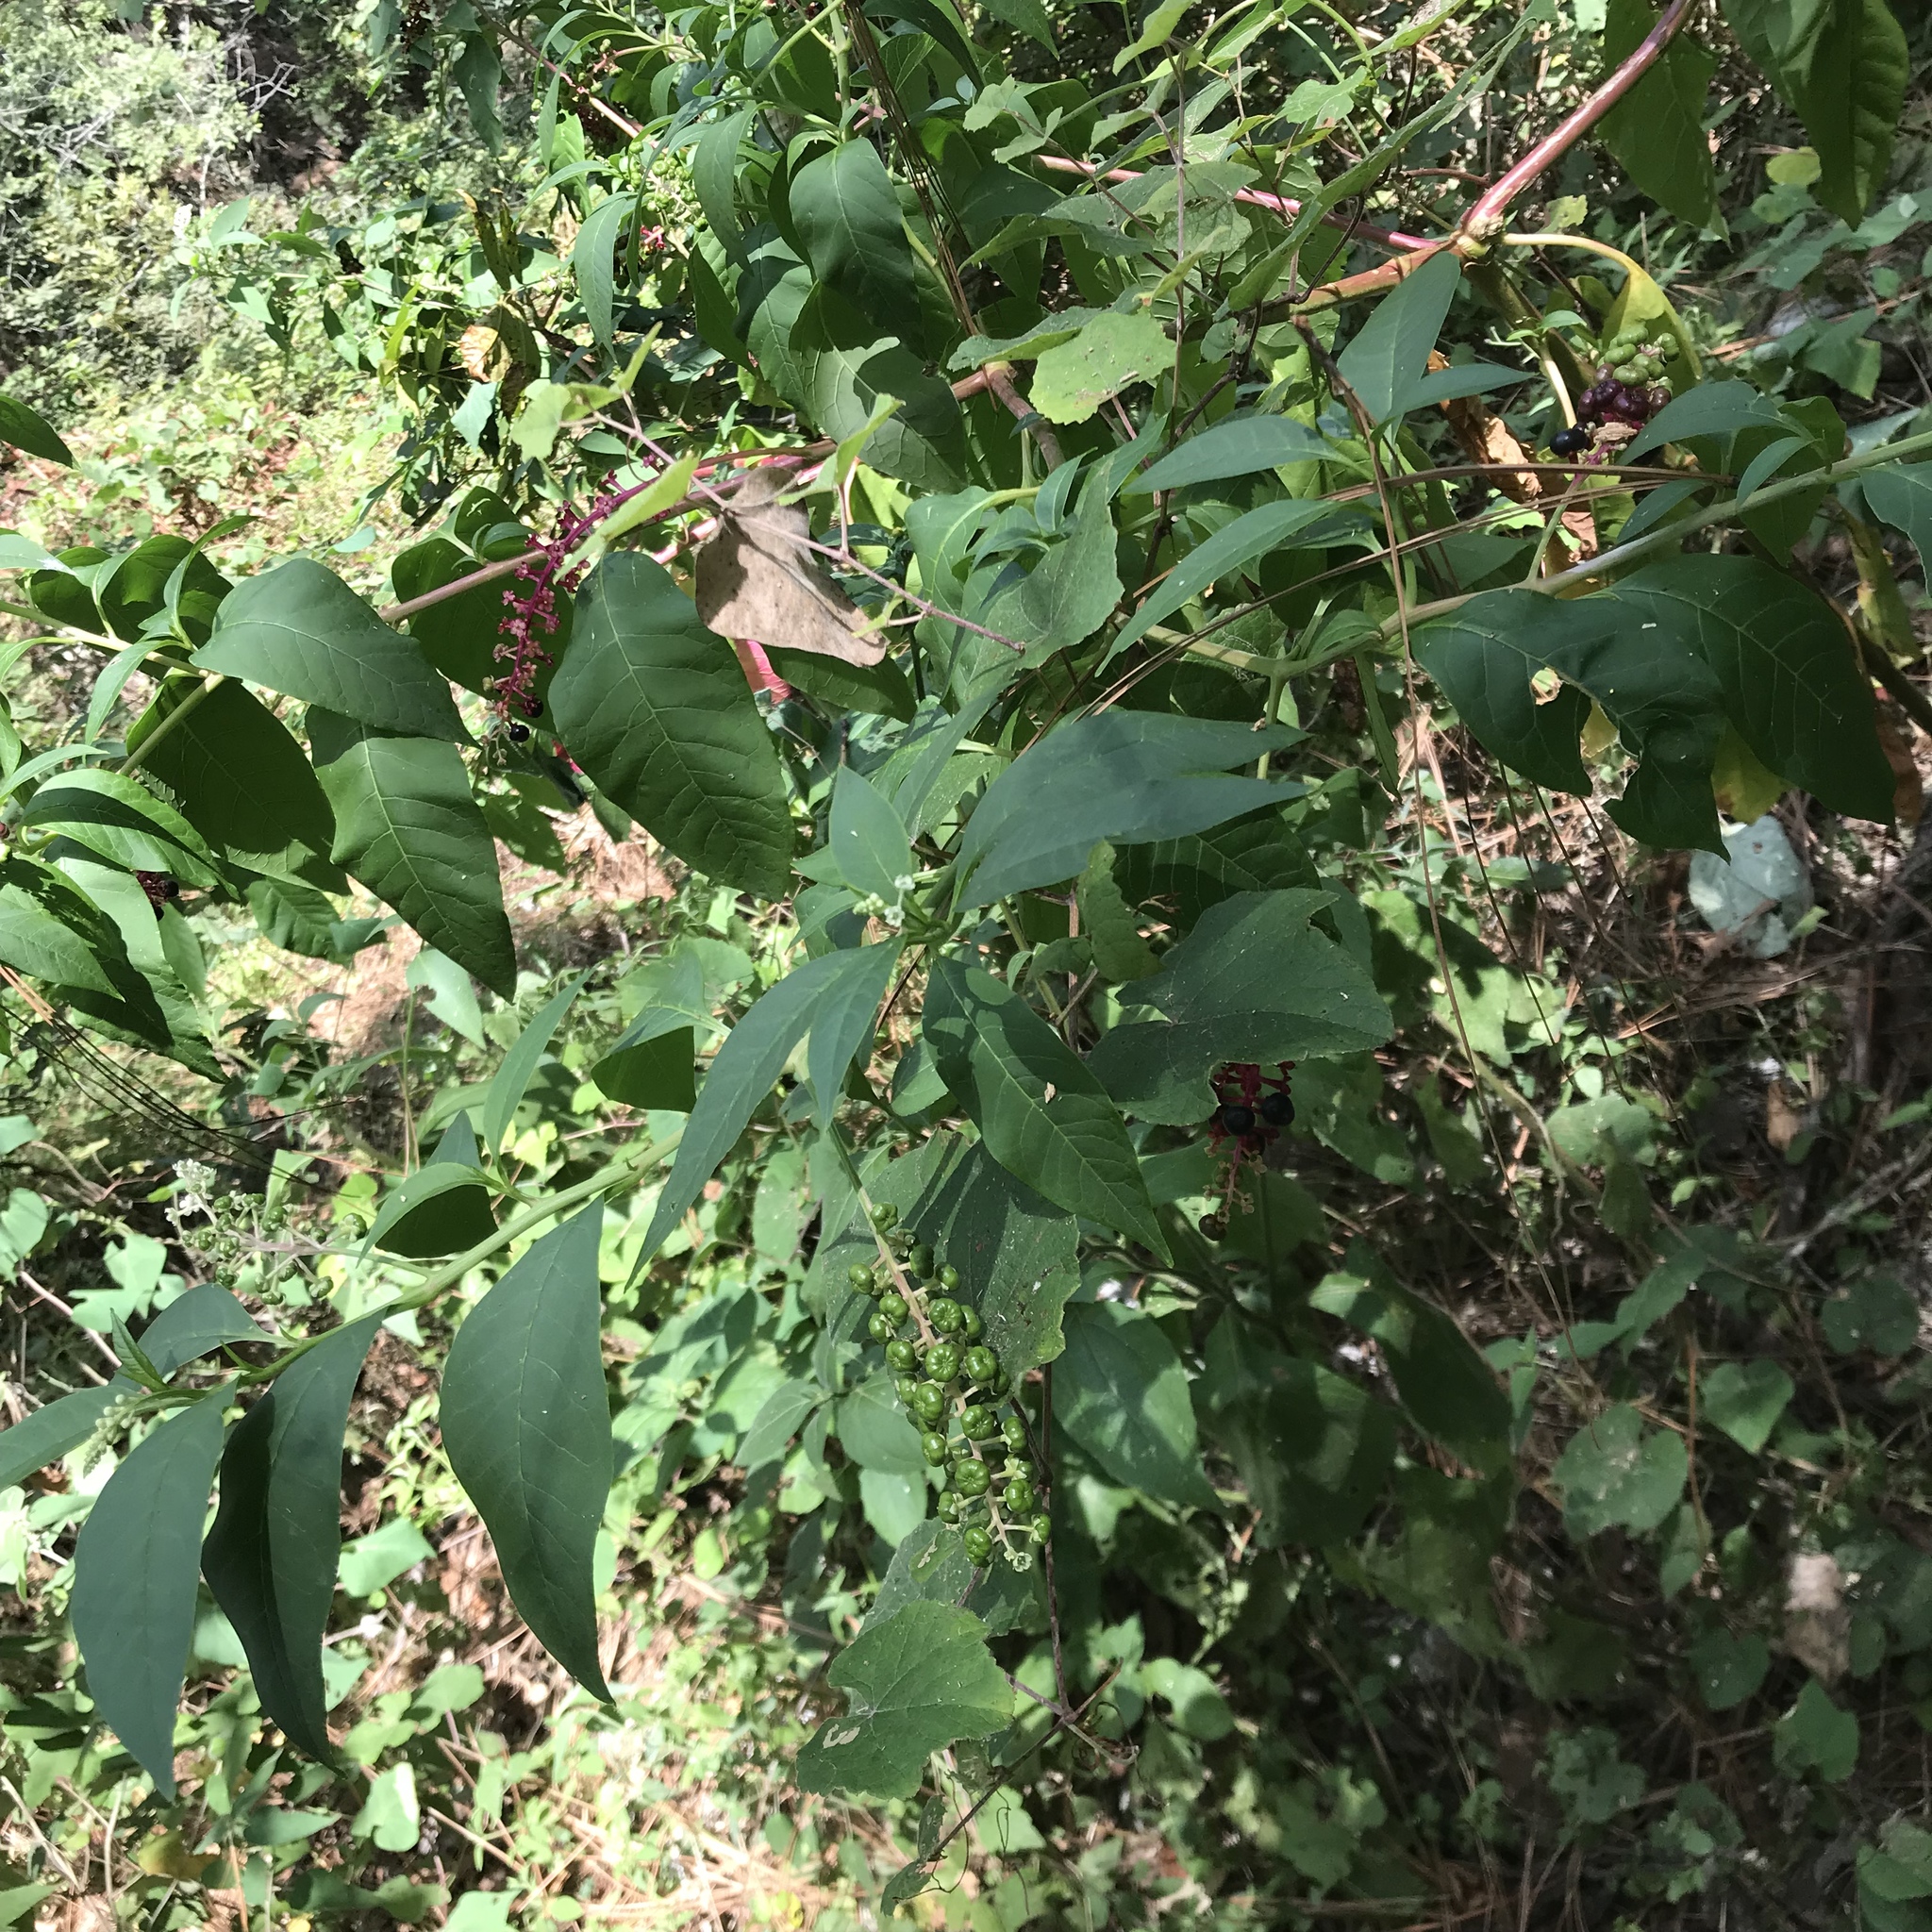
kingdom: Plantae
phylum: Tracheophyta
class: Magnoliopsida
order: Caryophyllales
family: Phytolaccaceae
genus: Phytolacca
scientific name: Phytolacca americana
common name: American pokeweed
